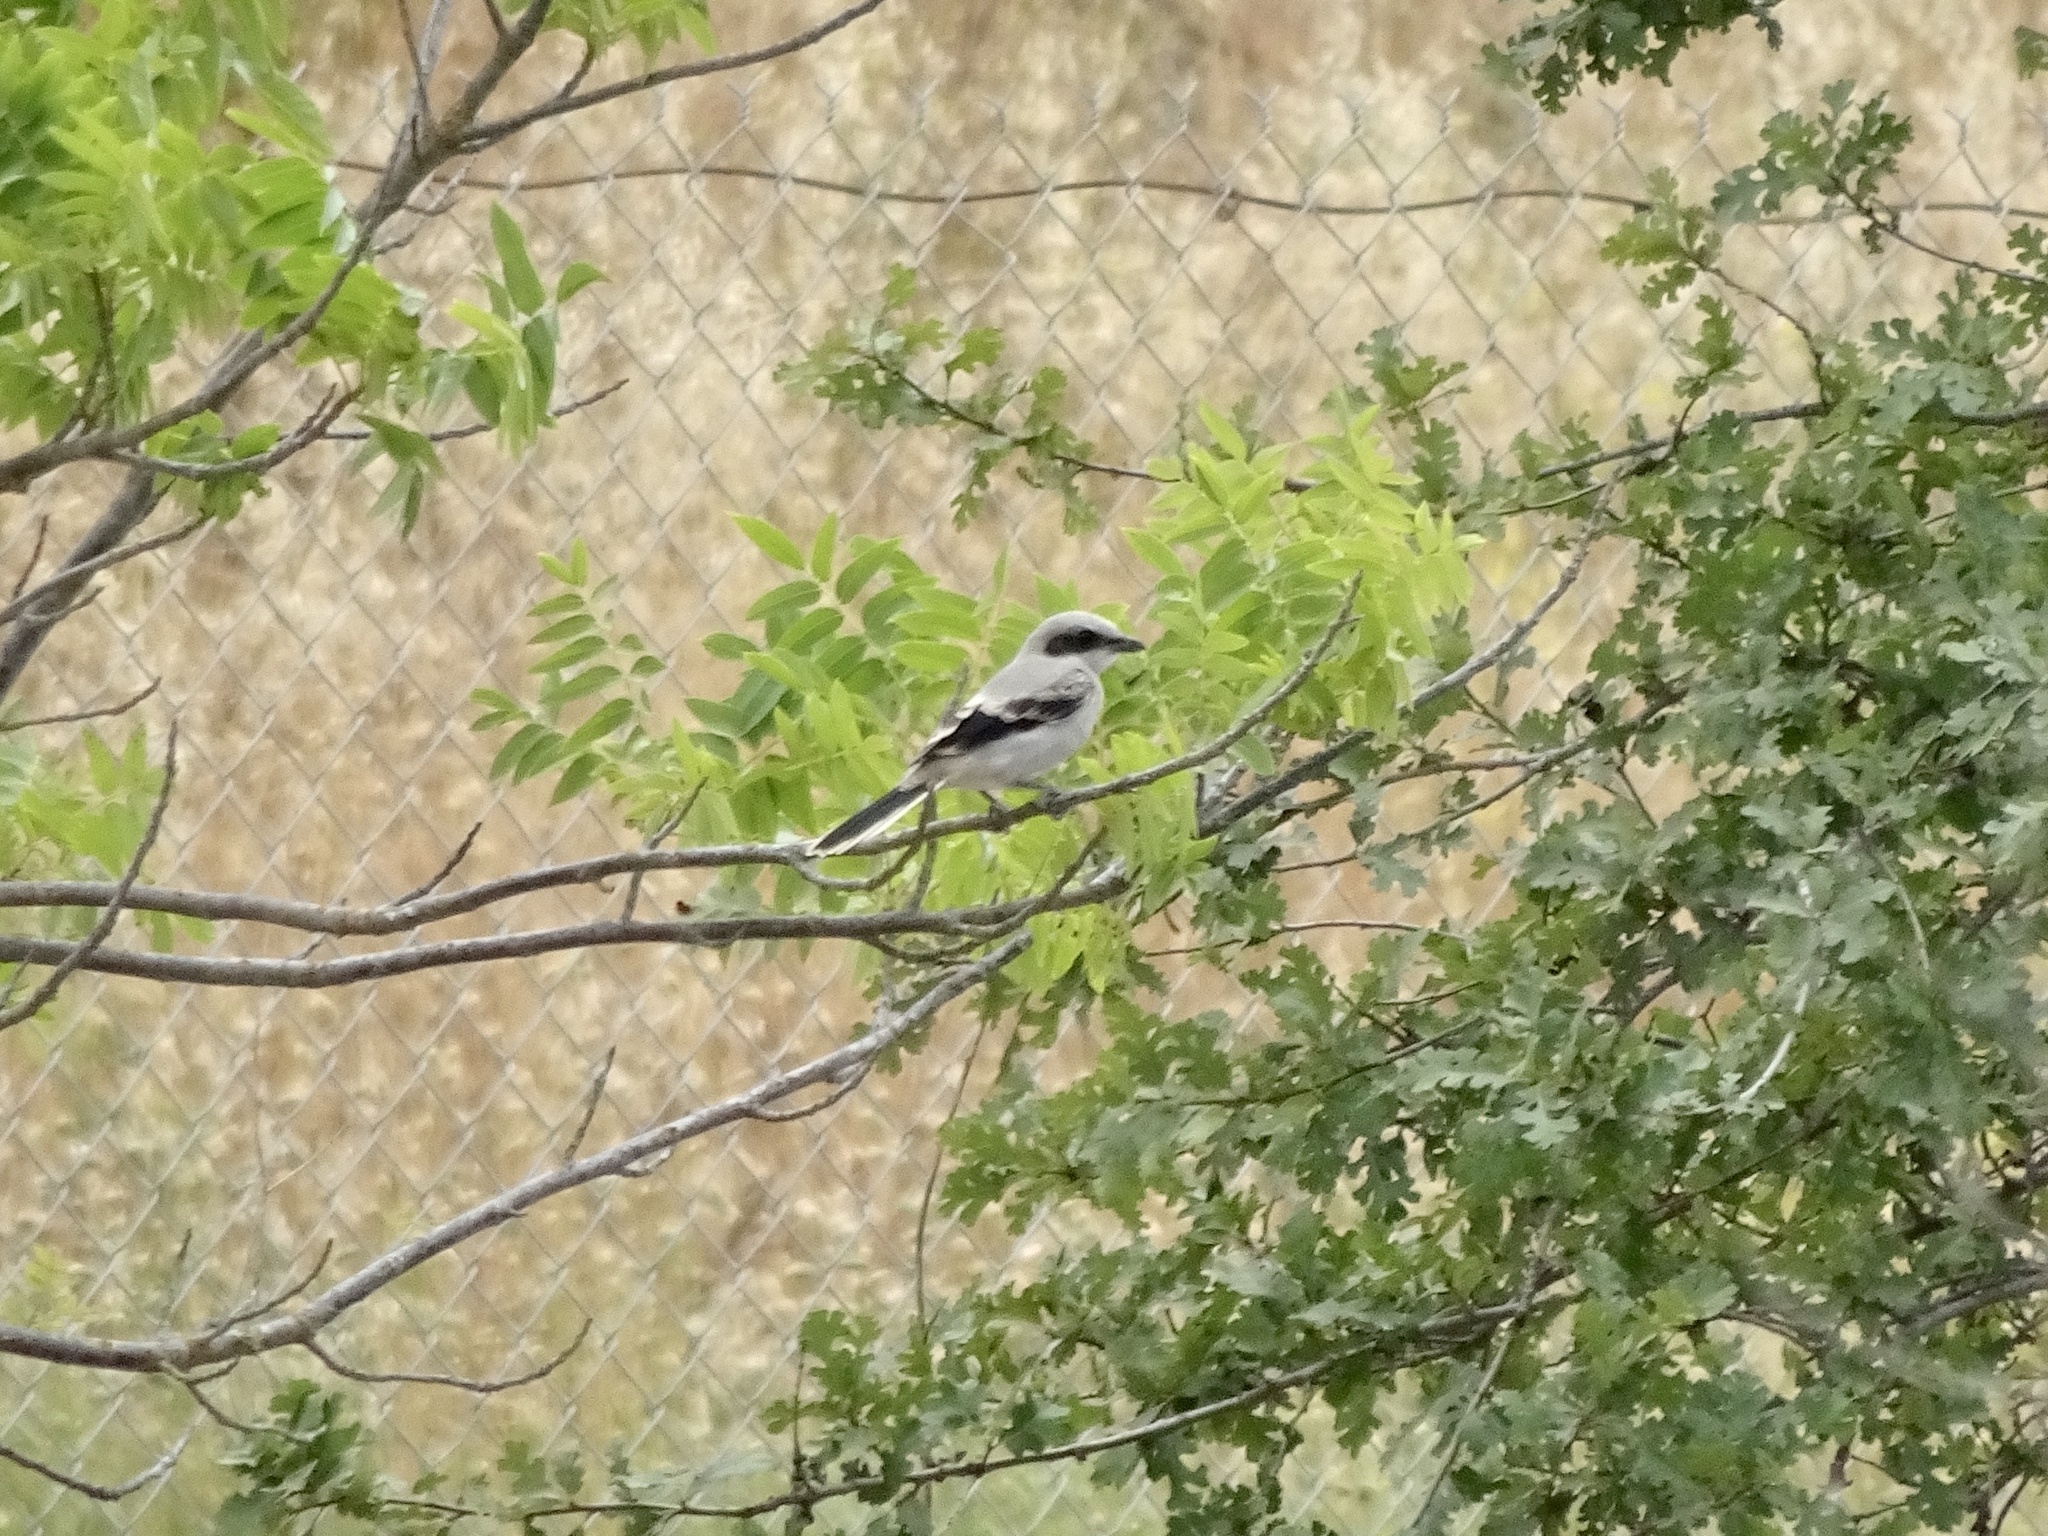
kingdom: Animalia
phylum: Chordata
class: Aves
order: Passeriformes
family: Laniidae
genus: Lanius
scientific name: Lanius ludovicianus
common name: Loggerhead shrike
